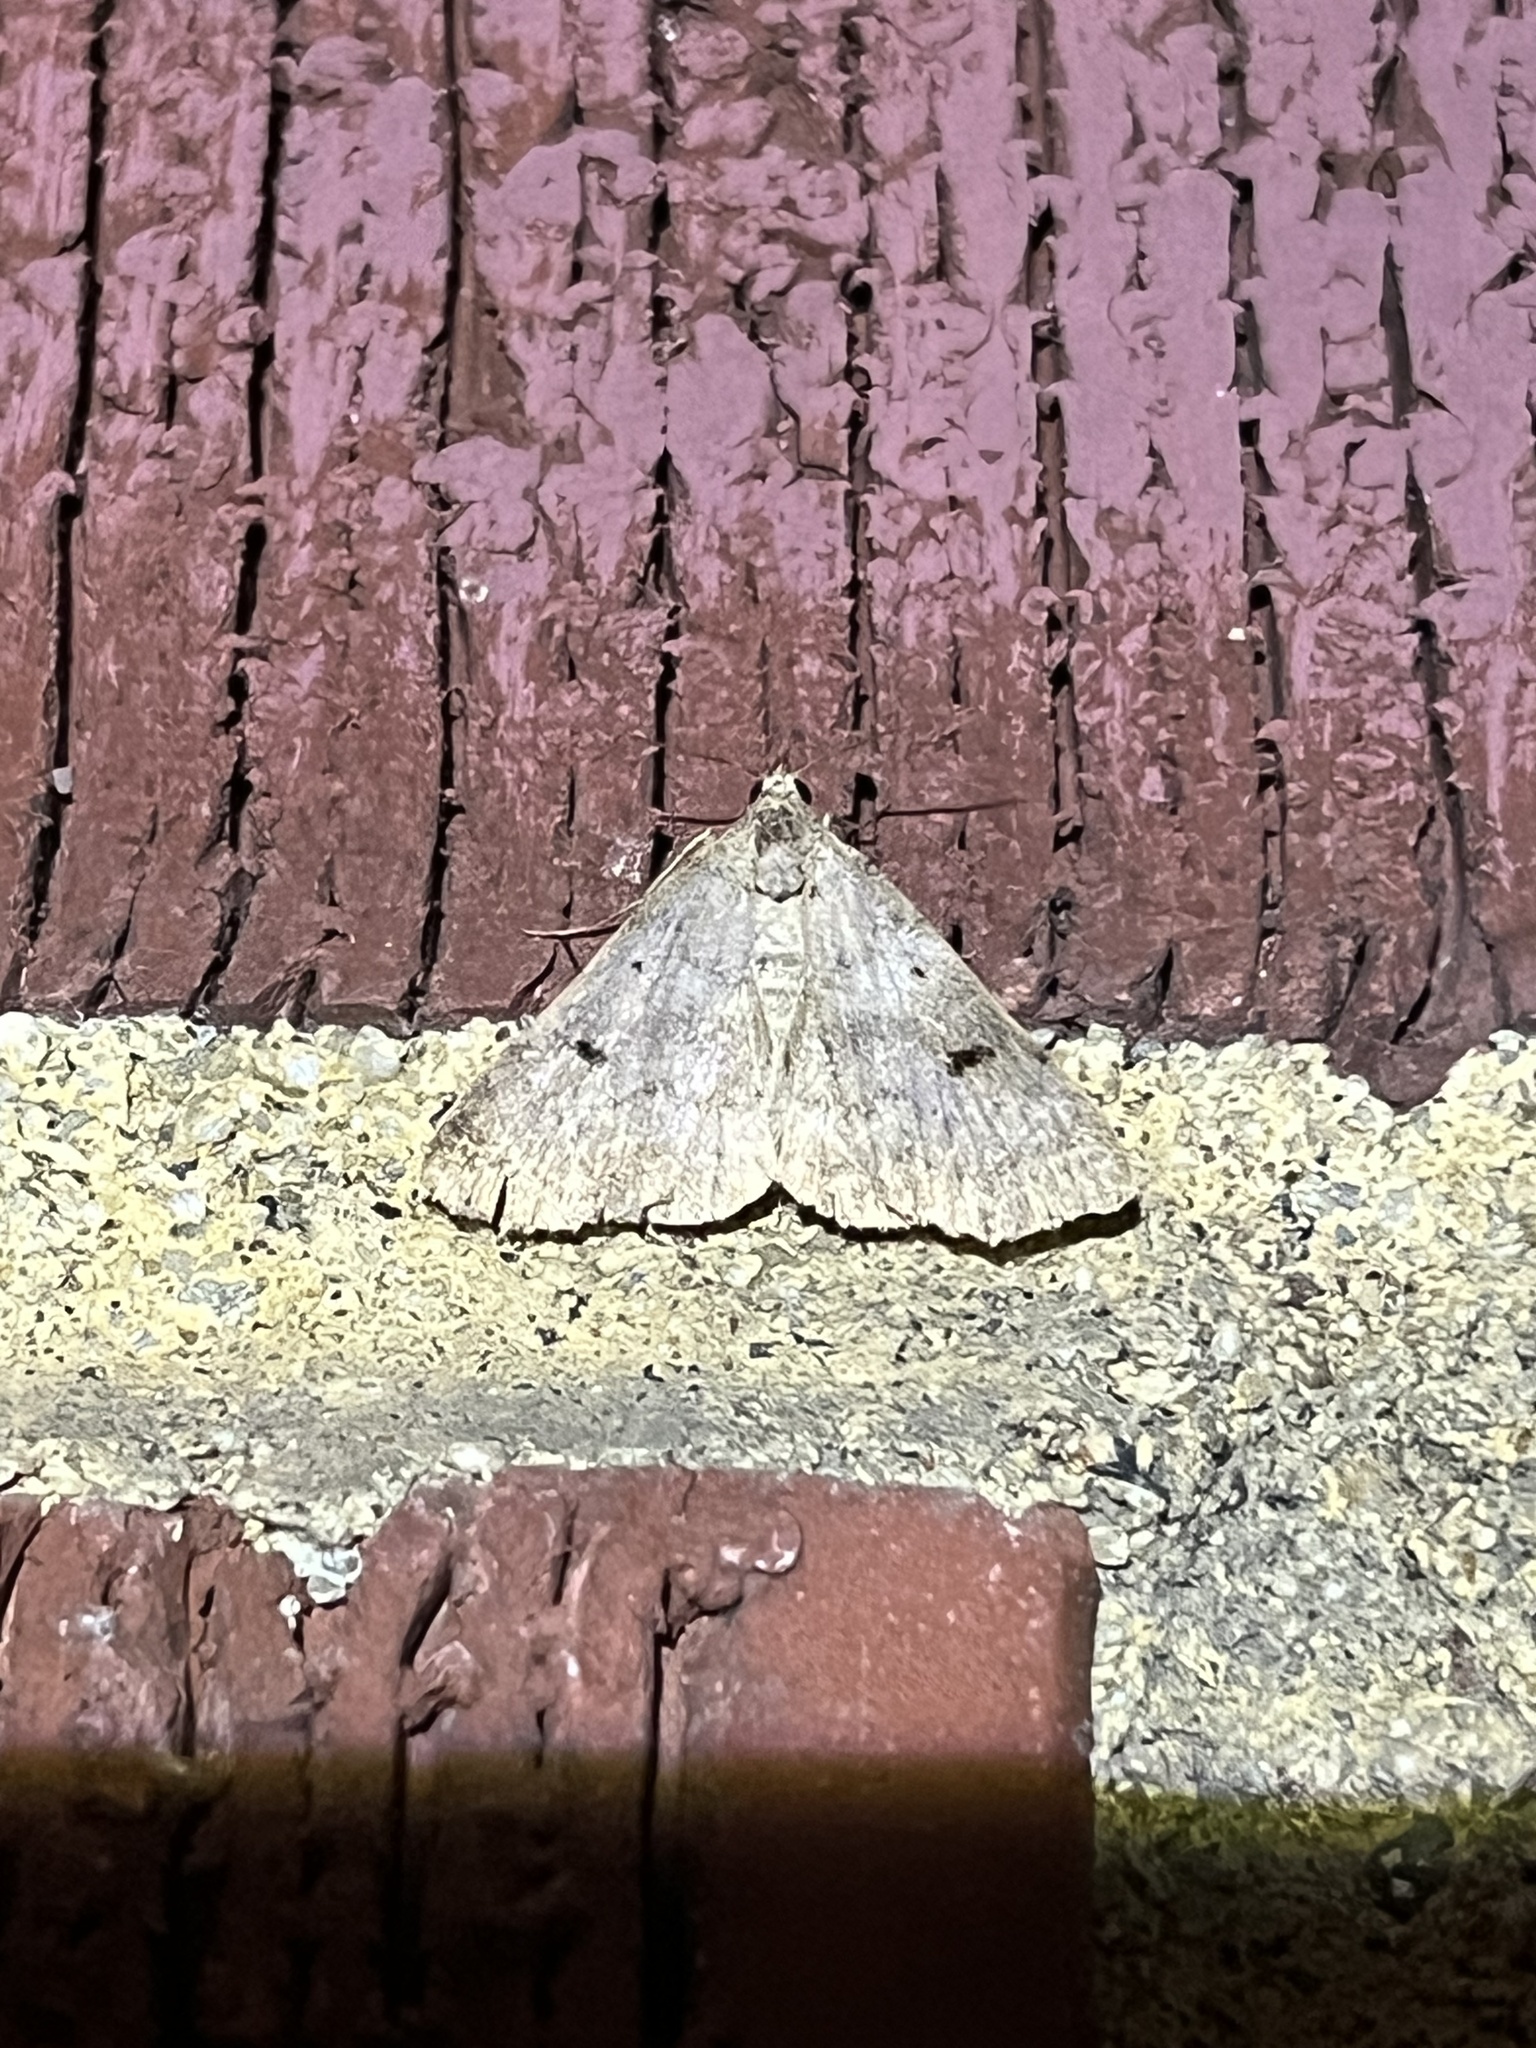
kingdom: Animalia
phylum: Arthropoda
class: Insecta
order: Lepidoptera
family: Erebidae
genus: Bleptina
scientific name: Bleptina caradrinalis
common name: Bent-winged owlet
